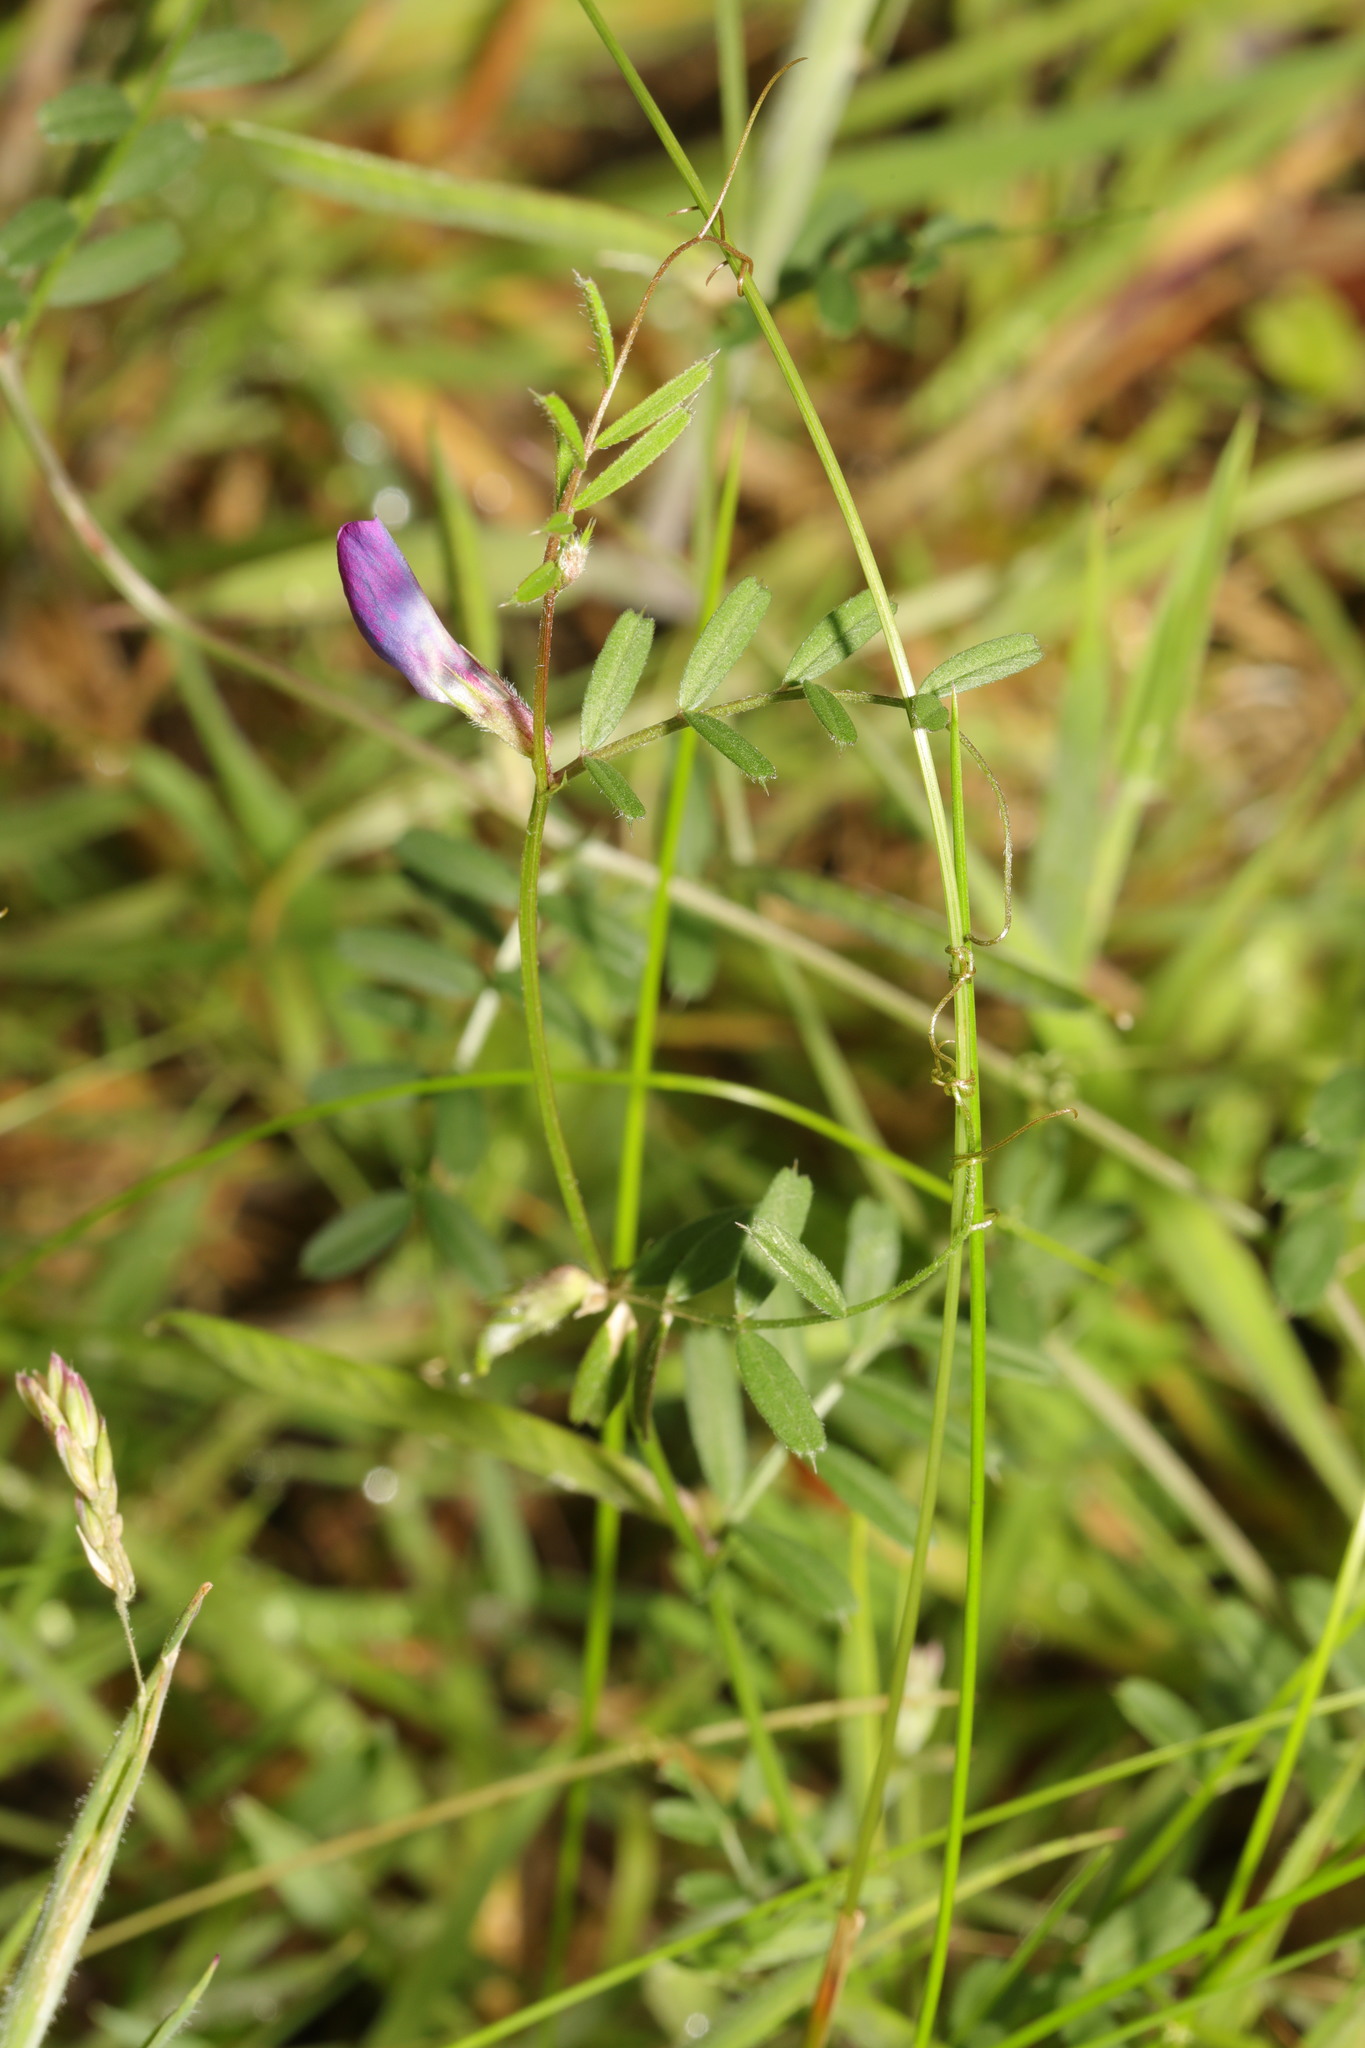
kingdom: Plantae
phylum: Tracheophyta
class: Magnoliopsida
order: Fabales
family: Fabaceae
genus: Vicia
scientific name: Vicia sativa
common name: Garden vetch
